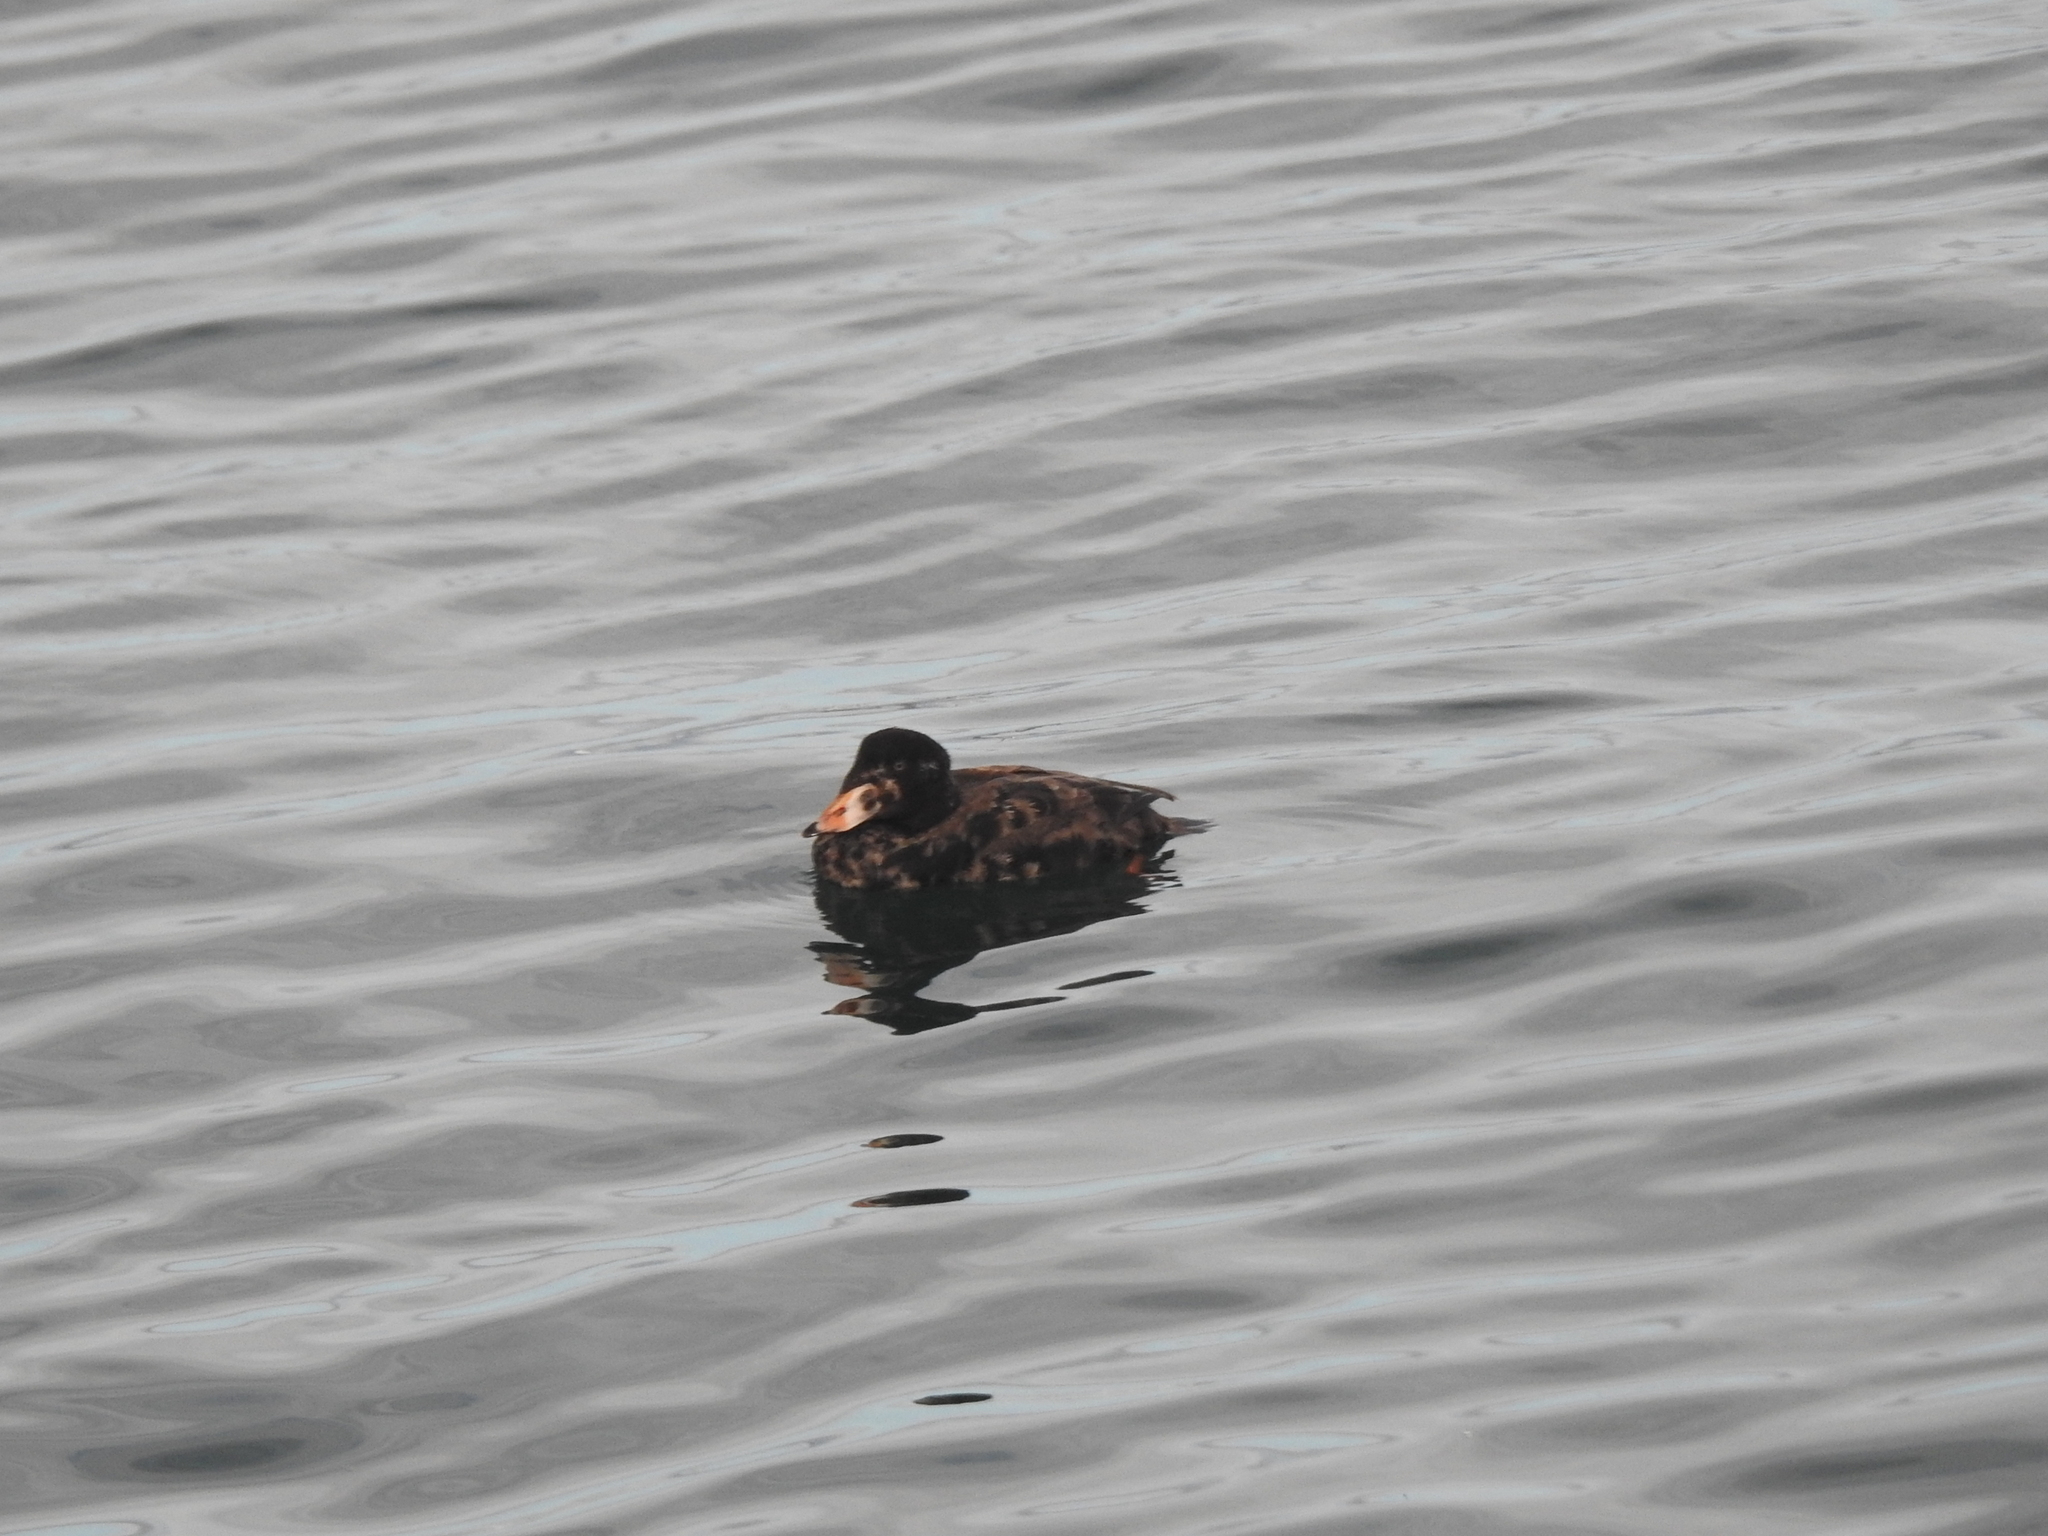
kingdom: Animalia
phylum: Chordata
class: Aves
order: Anseriformes
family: Anatidae
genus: Melanitta
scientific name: Melanitta perspicillata
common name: Surf scoter
